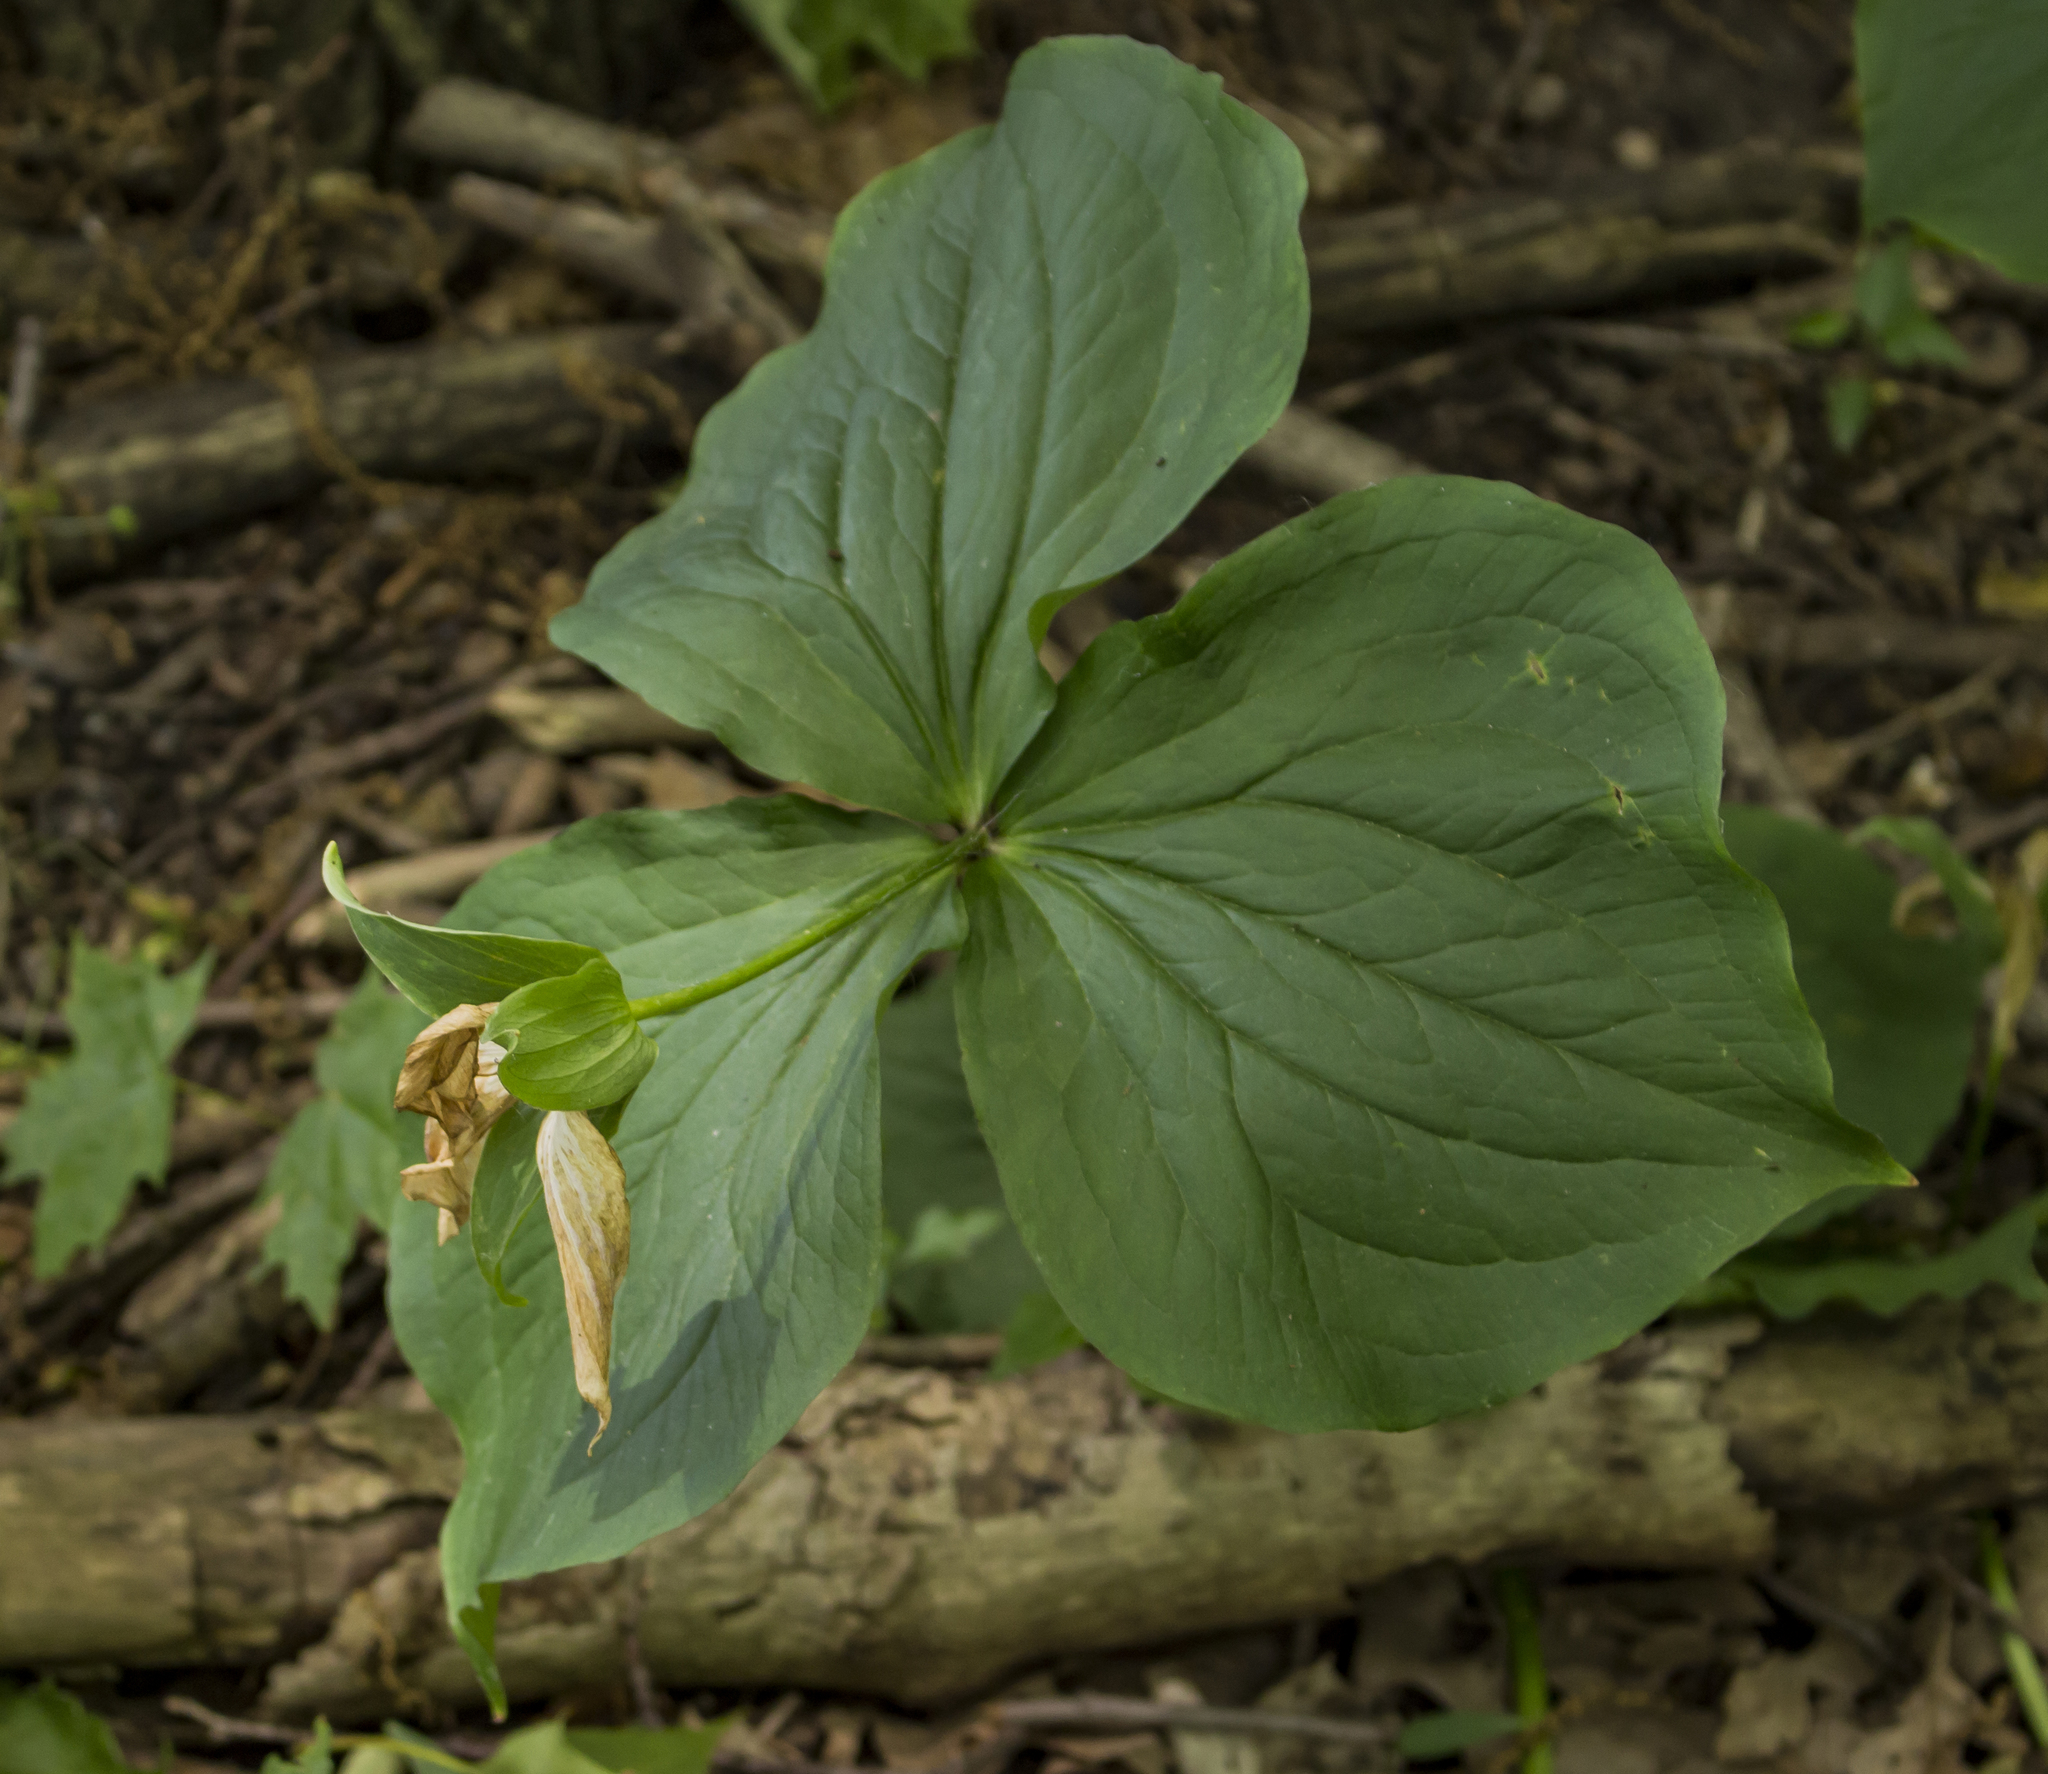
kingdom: Plantae
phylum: Tracheophyta
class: Liliopsida
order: Liliales
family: Melanthiaceae
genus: Trillium
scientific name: Trillium grandiflorum
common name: Great white trillium
